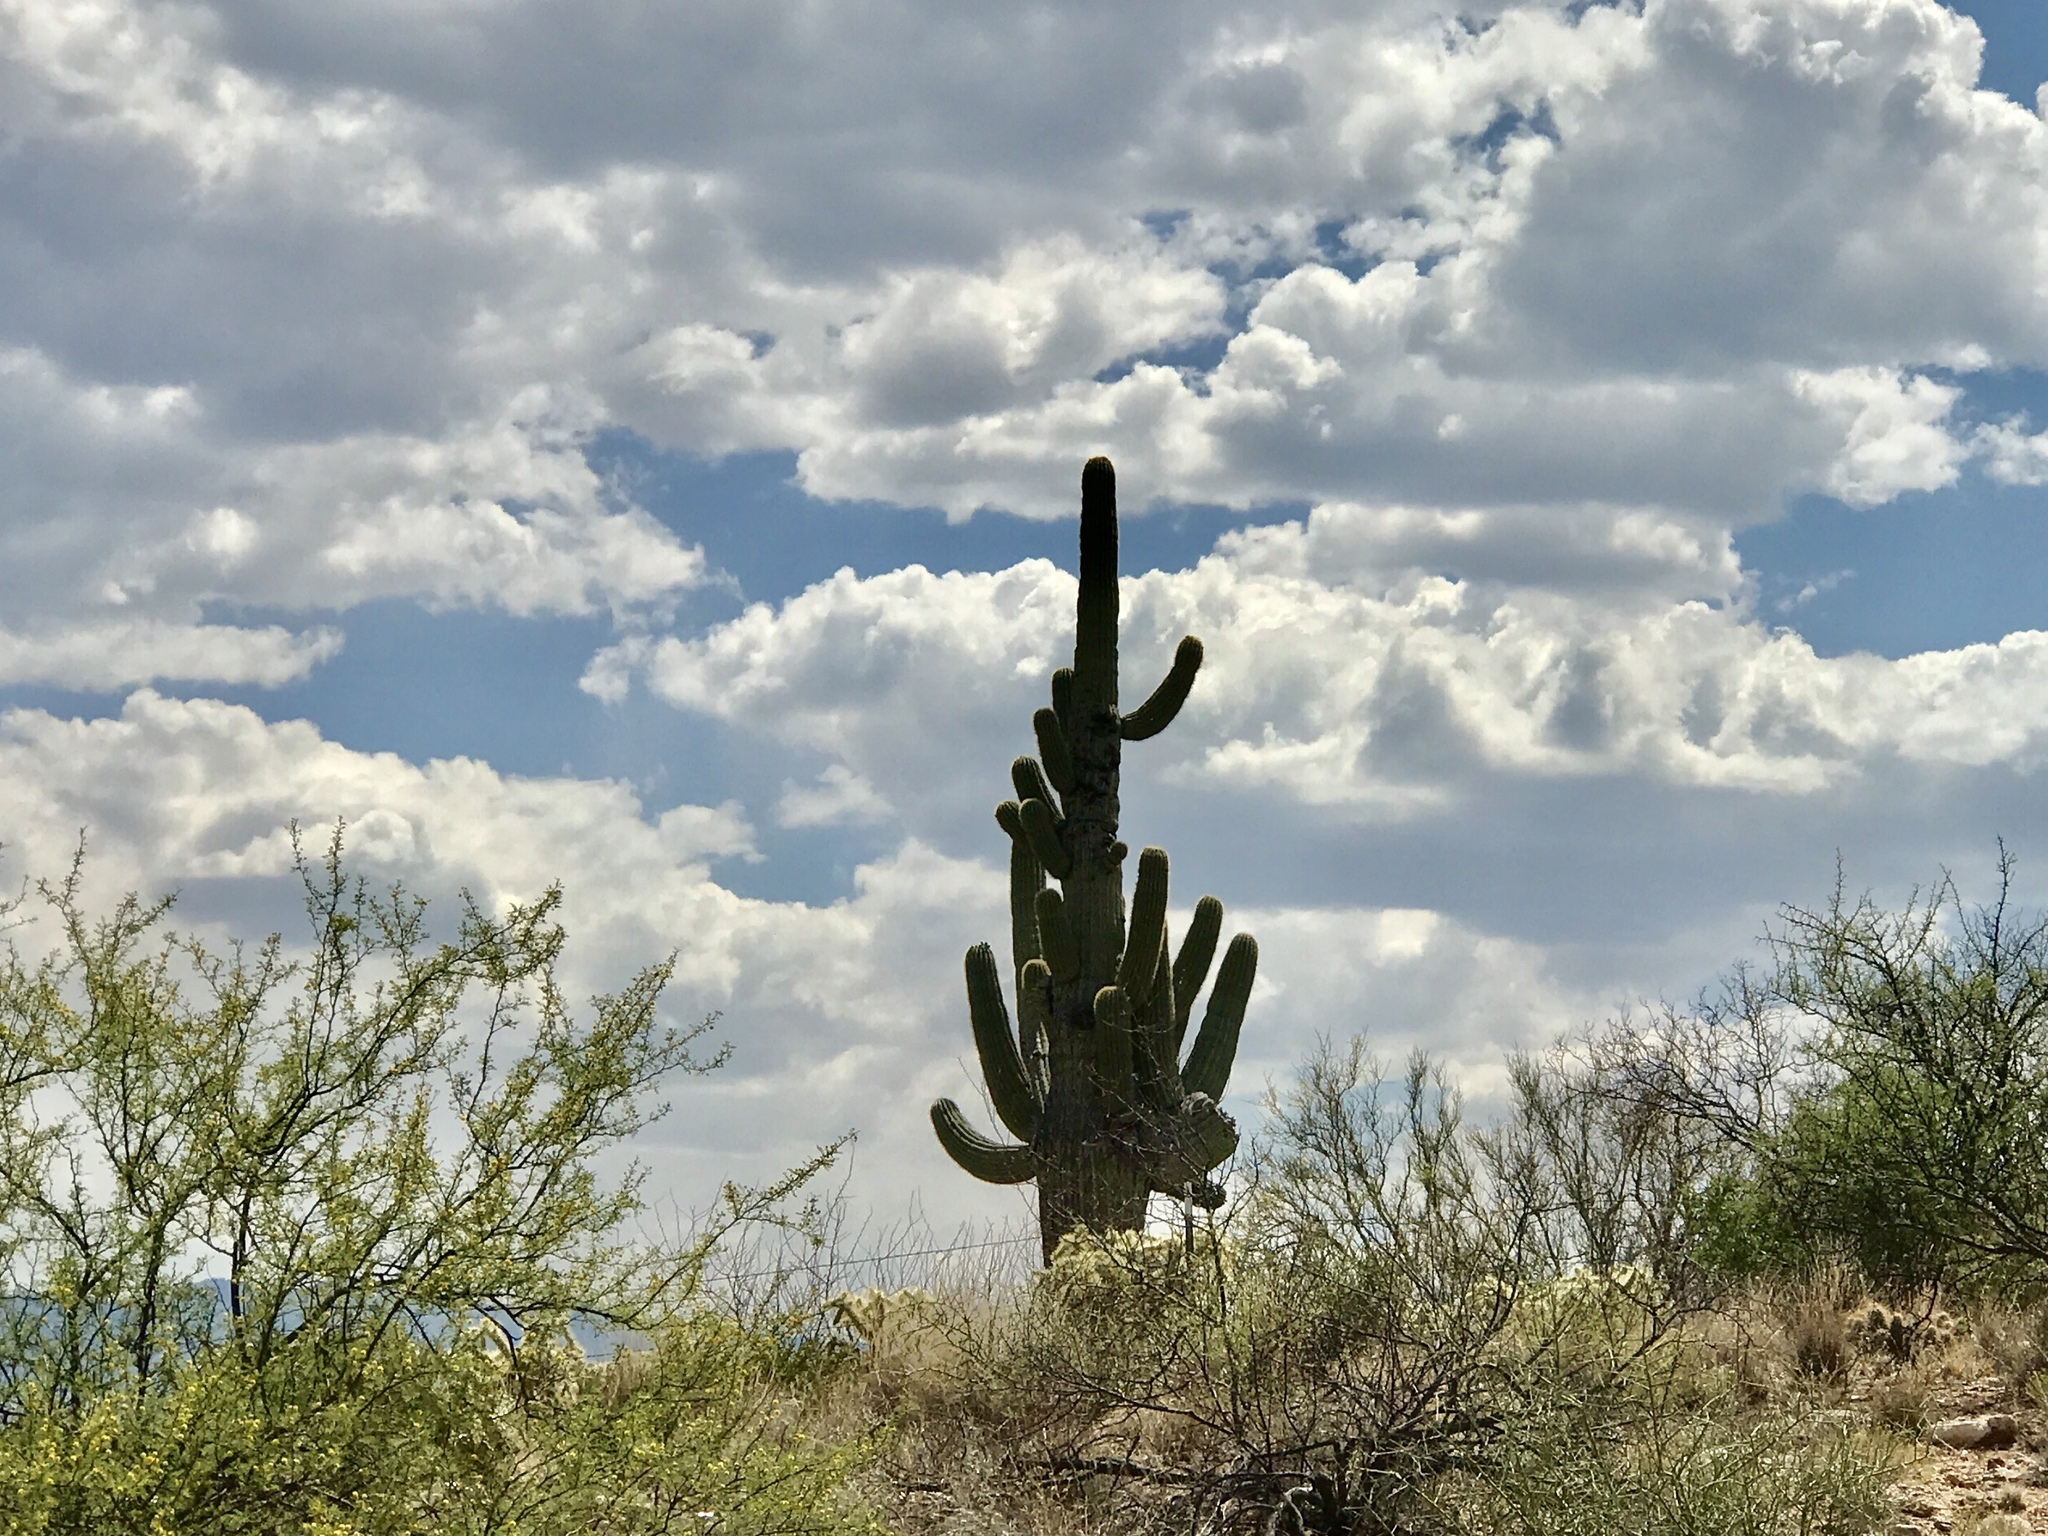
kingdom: Plantae
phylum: Tracheophyta
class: Magnoliopsida
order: Caryophyllales
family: Cactaceae
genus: Carnegiea
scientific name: Carnegiea gigantea
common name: Saguaro
